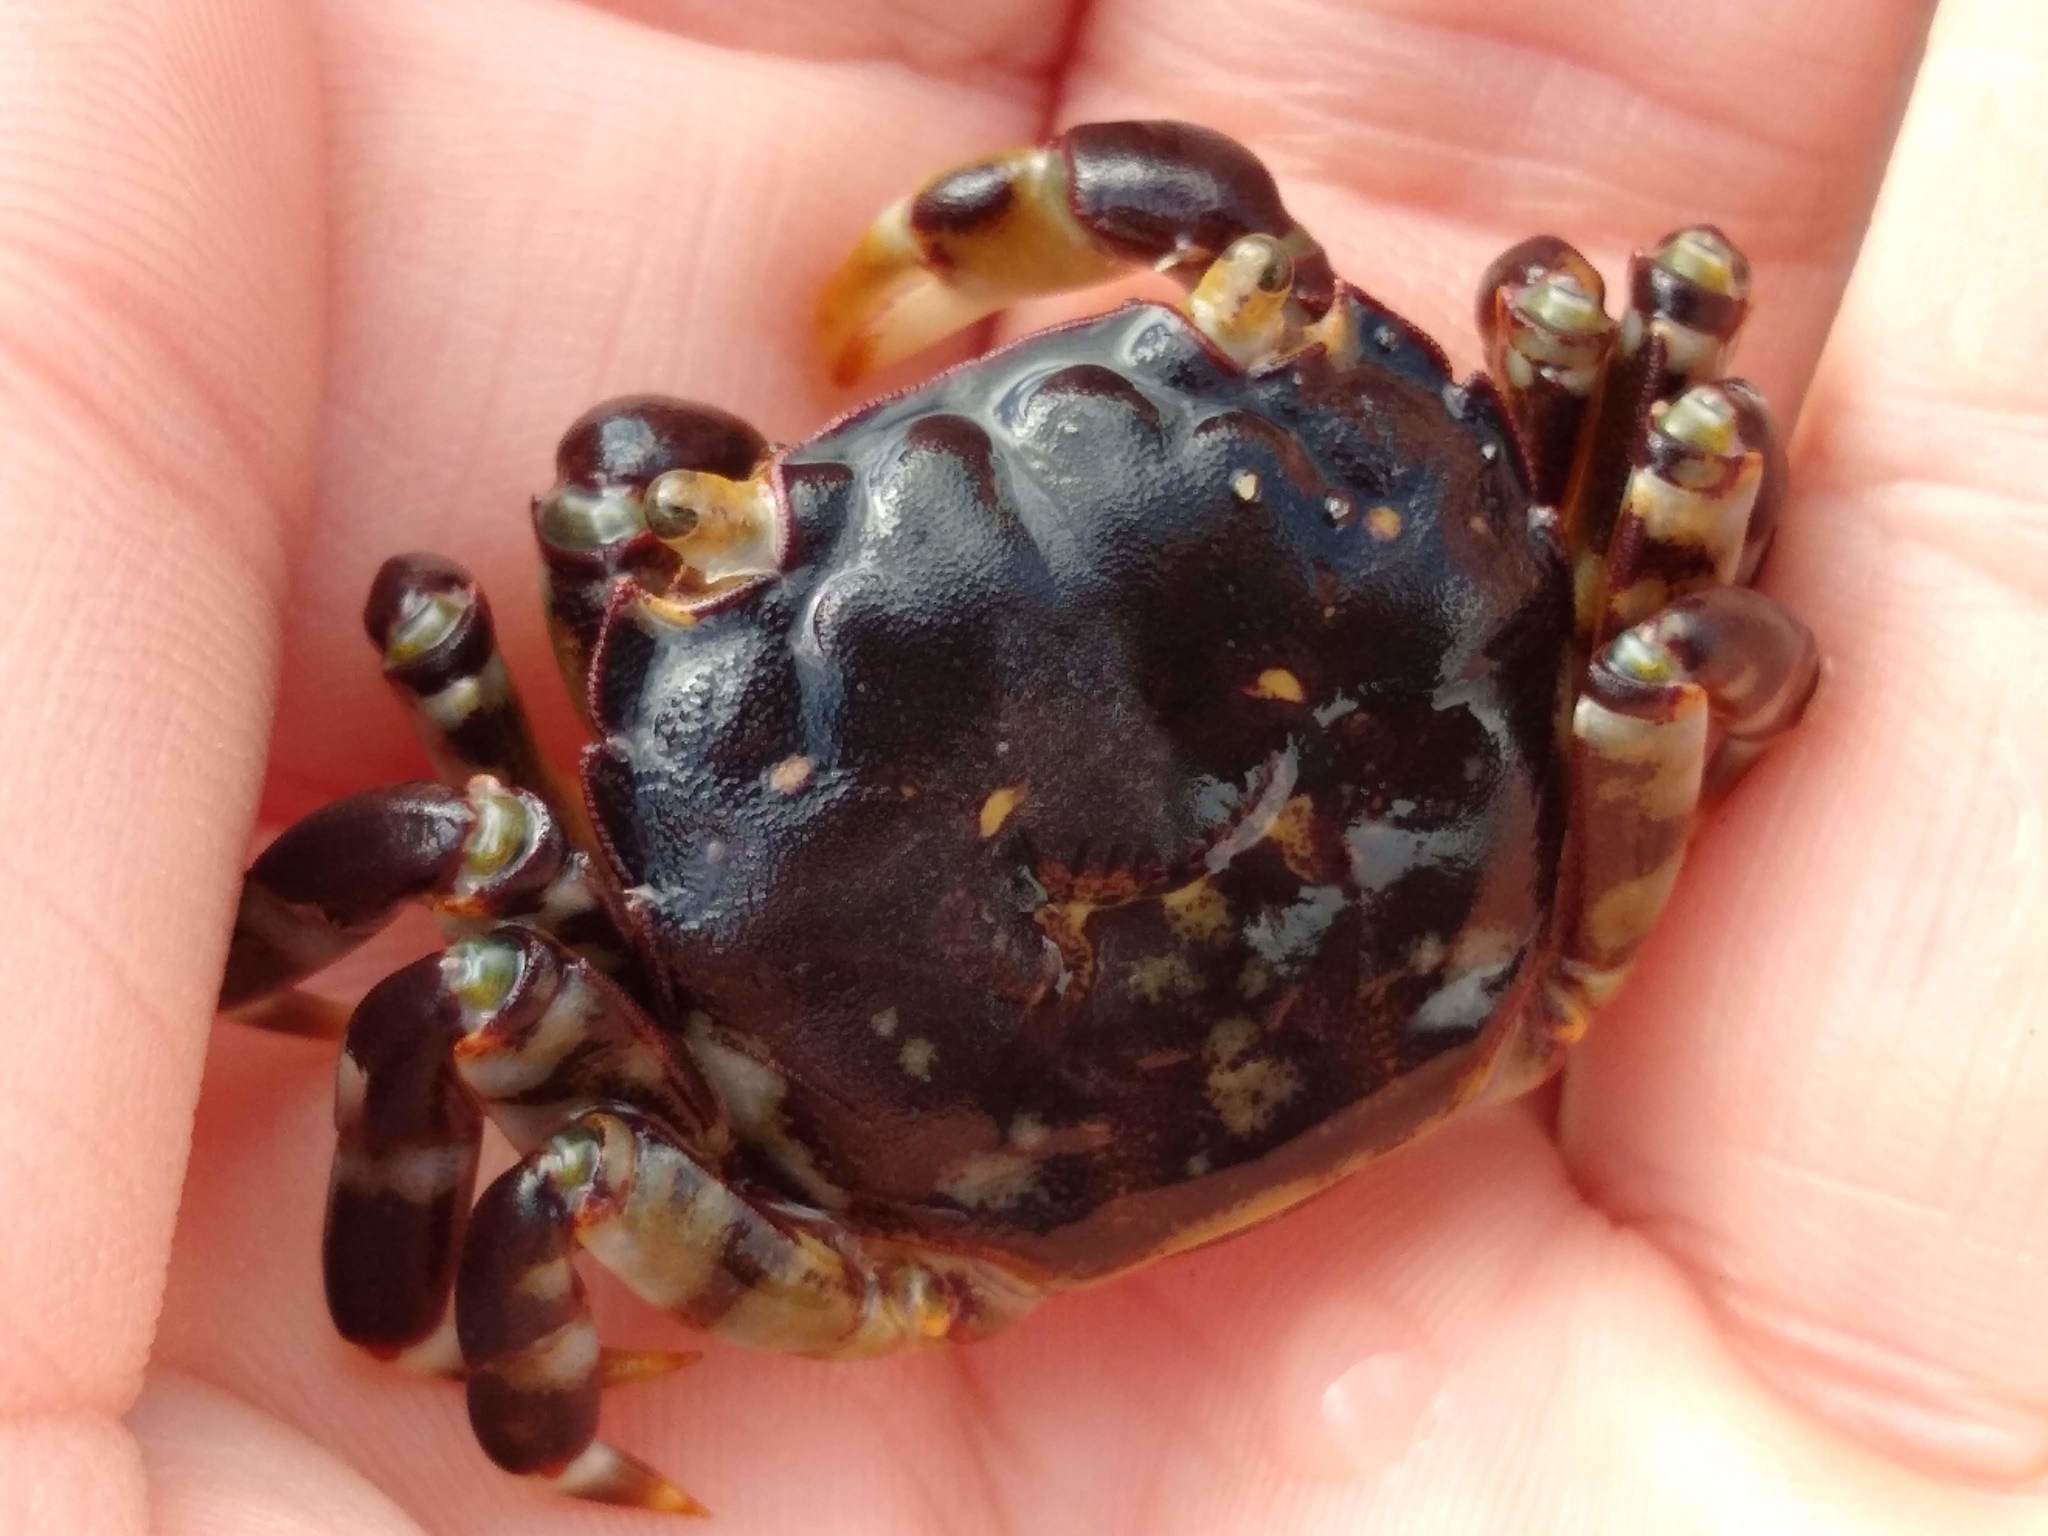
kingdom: Animalia
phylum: Arthropoda
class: Malacostraca
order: Decapoda
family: Varunidae
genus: Hemigrapsus
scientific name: Hemigrapsus sexdentatus
